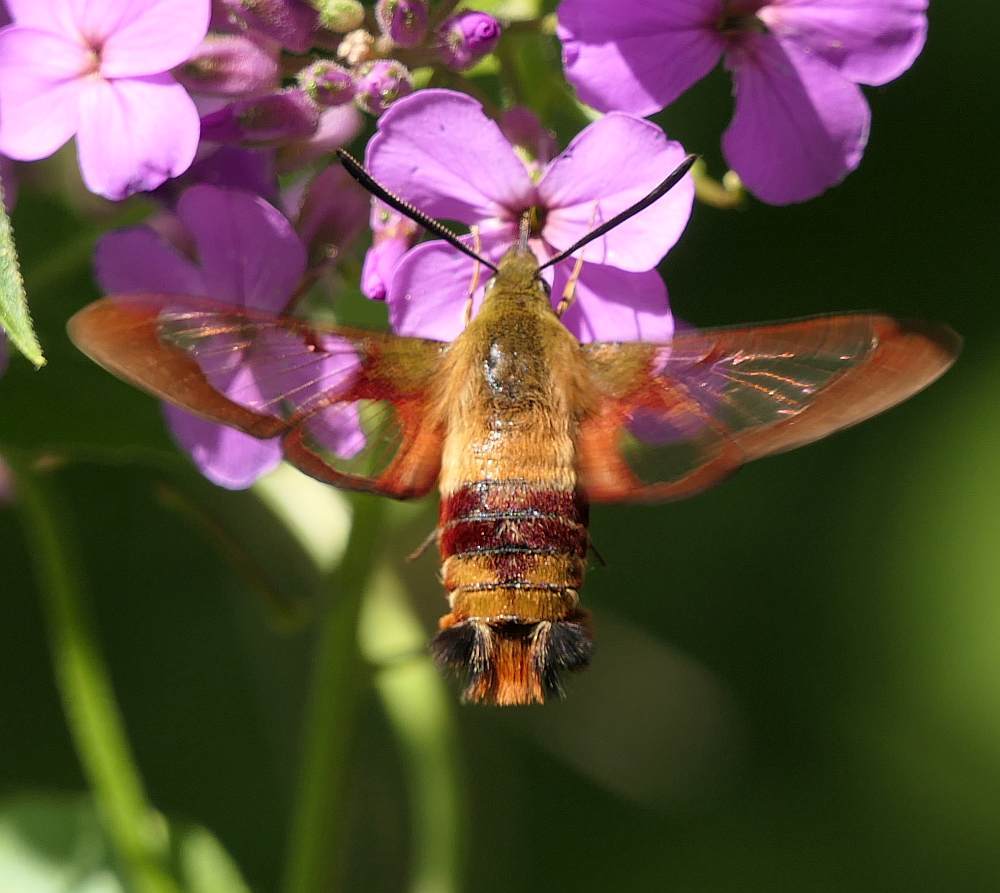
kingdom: Animalia
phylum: Arthropoda
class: Insecta
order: Lepidoptera
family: Sphingidae
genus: Hemaris
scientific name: Hemaris thysbe
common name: Common clear-wing
